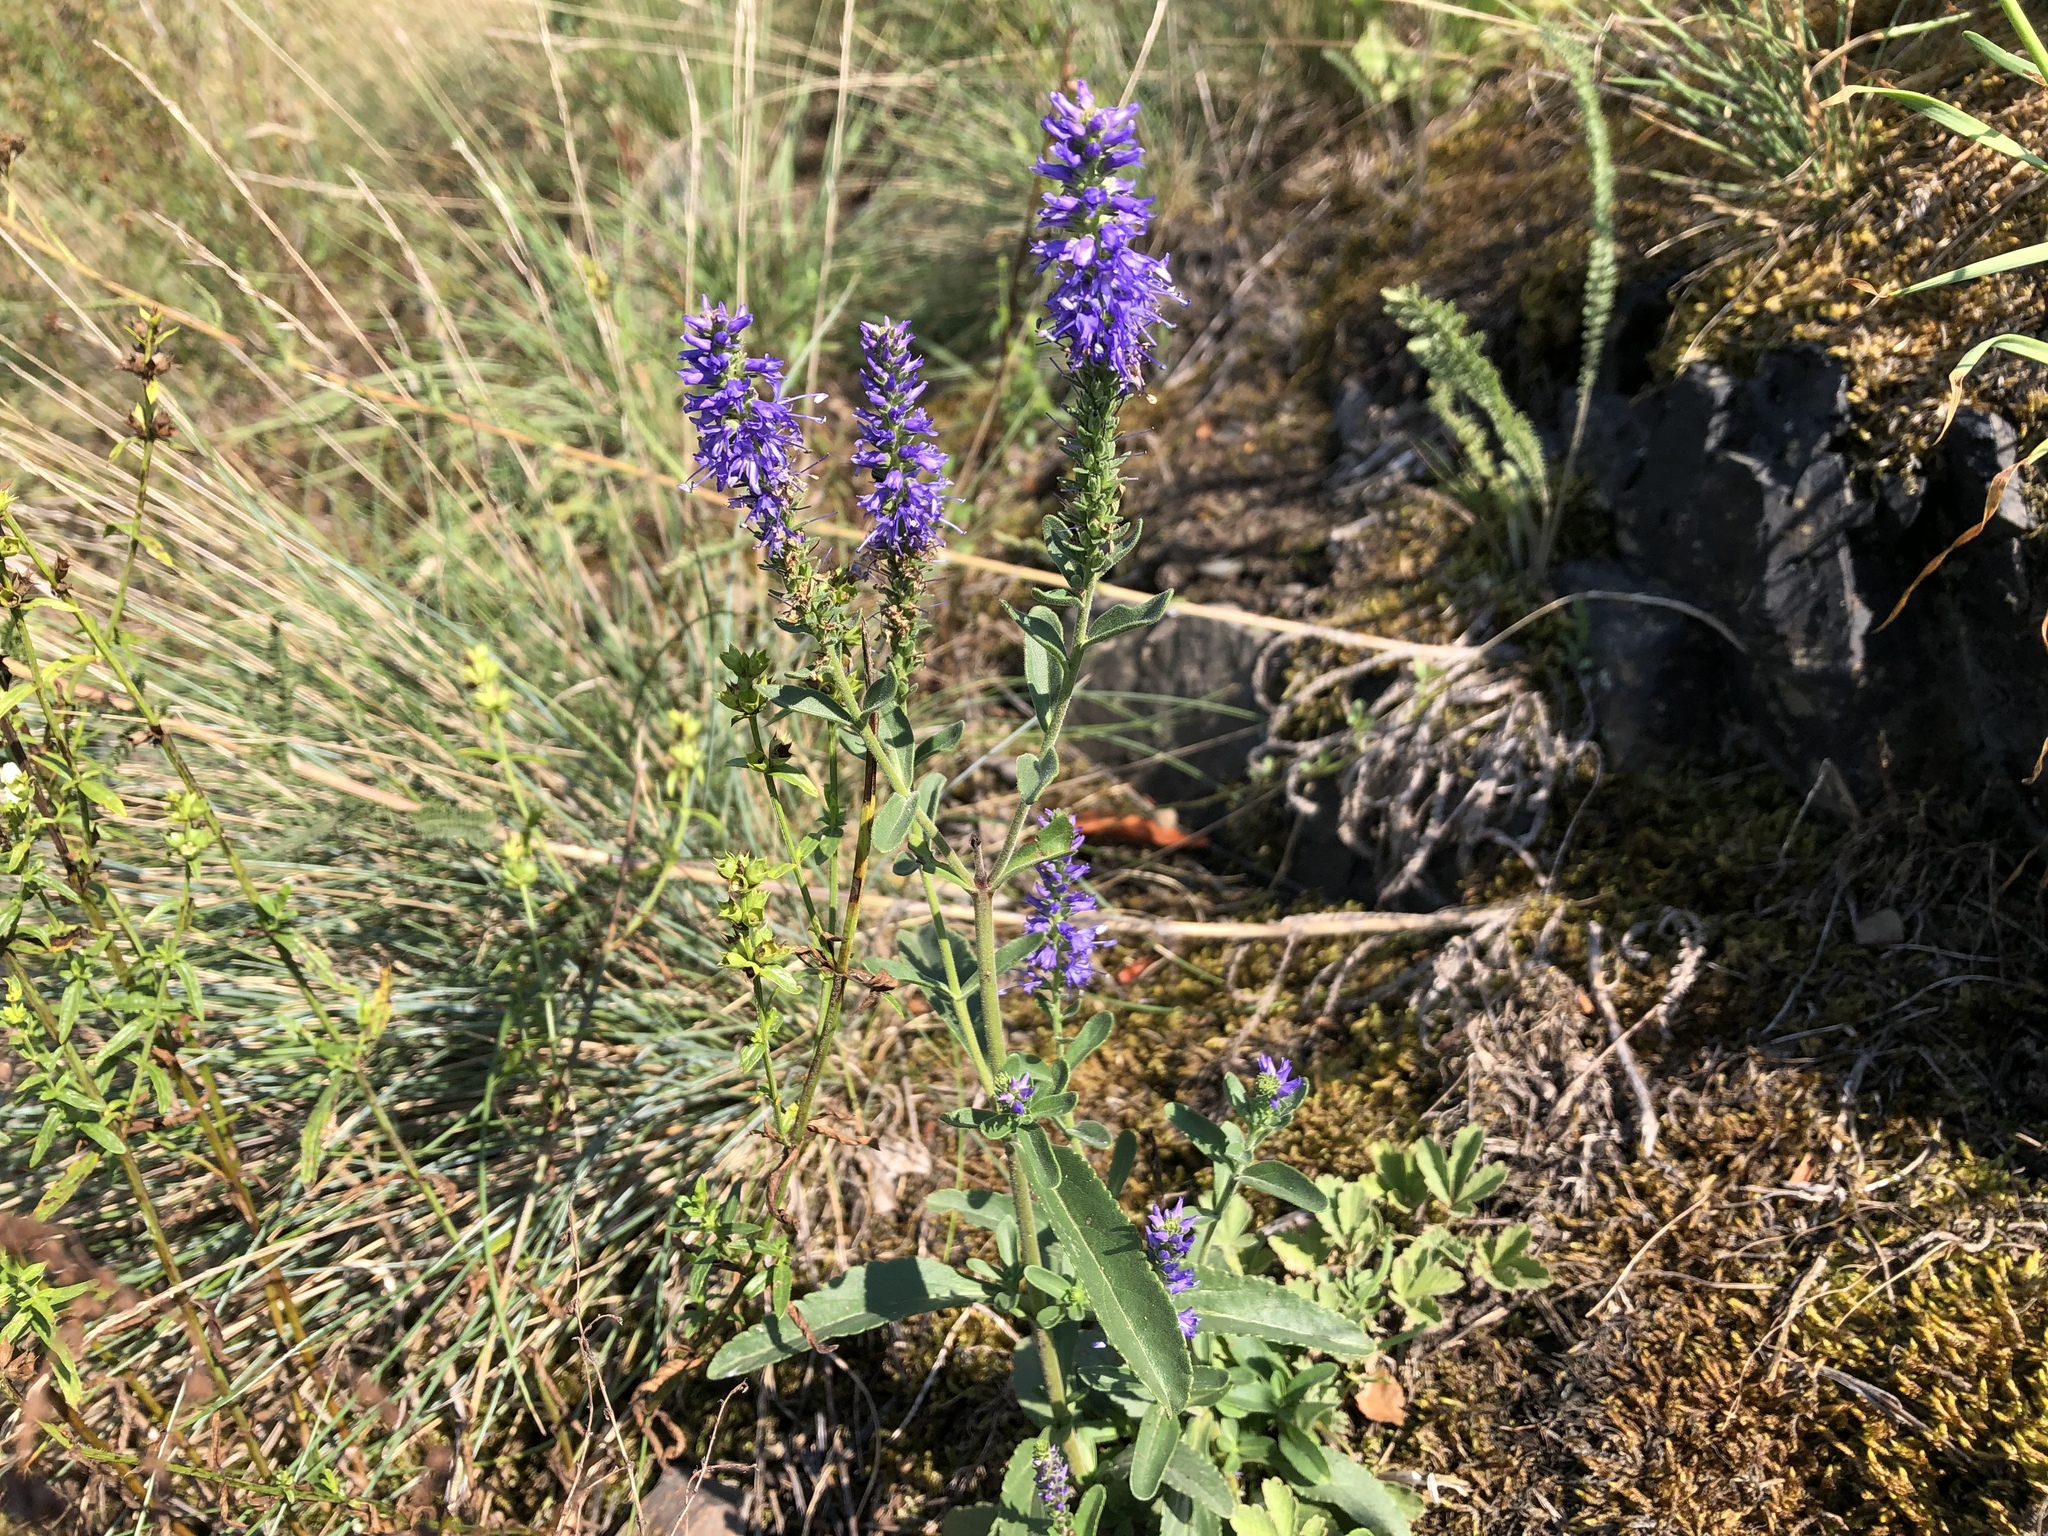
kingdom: Plantae
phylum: Tracheophyta
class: Magnoliopsida
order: Lamiales
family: Plantaginaceae
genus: Veronica
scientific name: Veronica spicata
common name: Spiked speedwell
